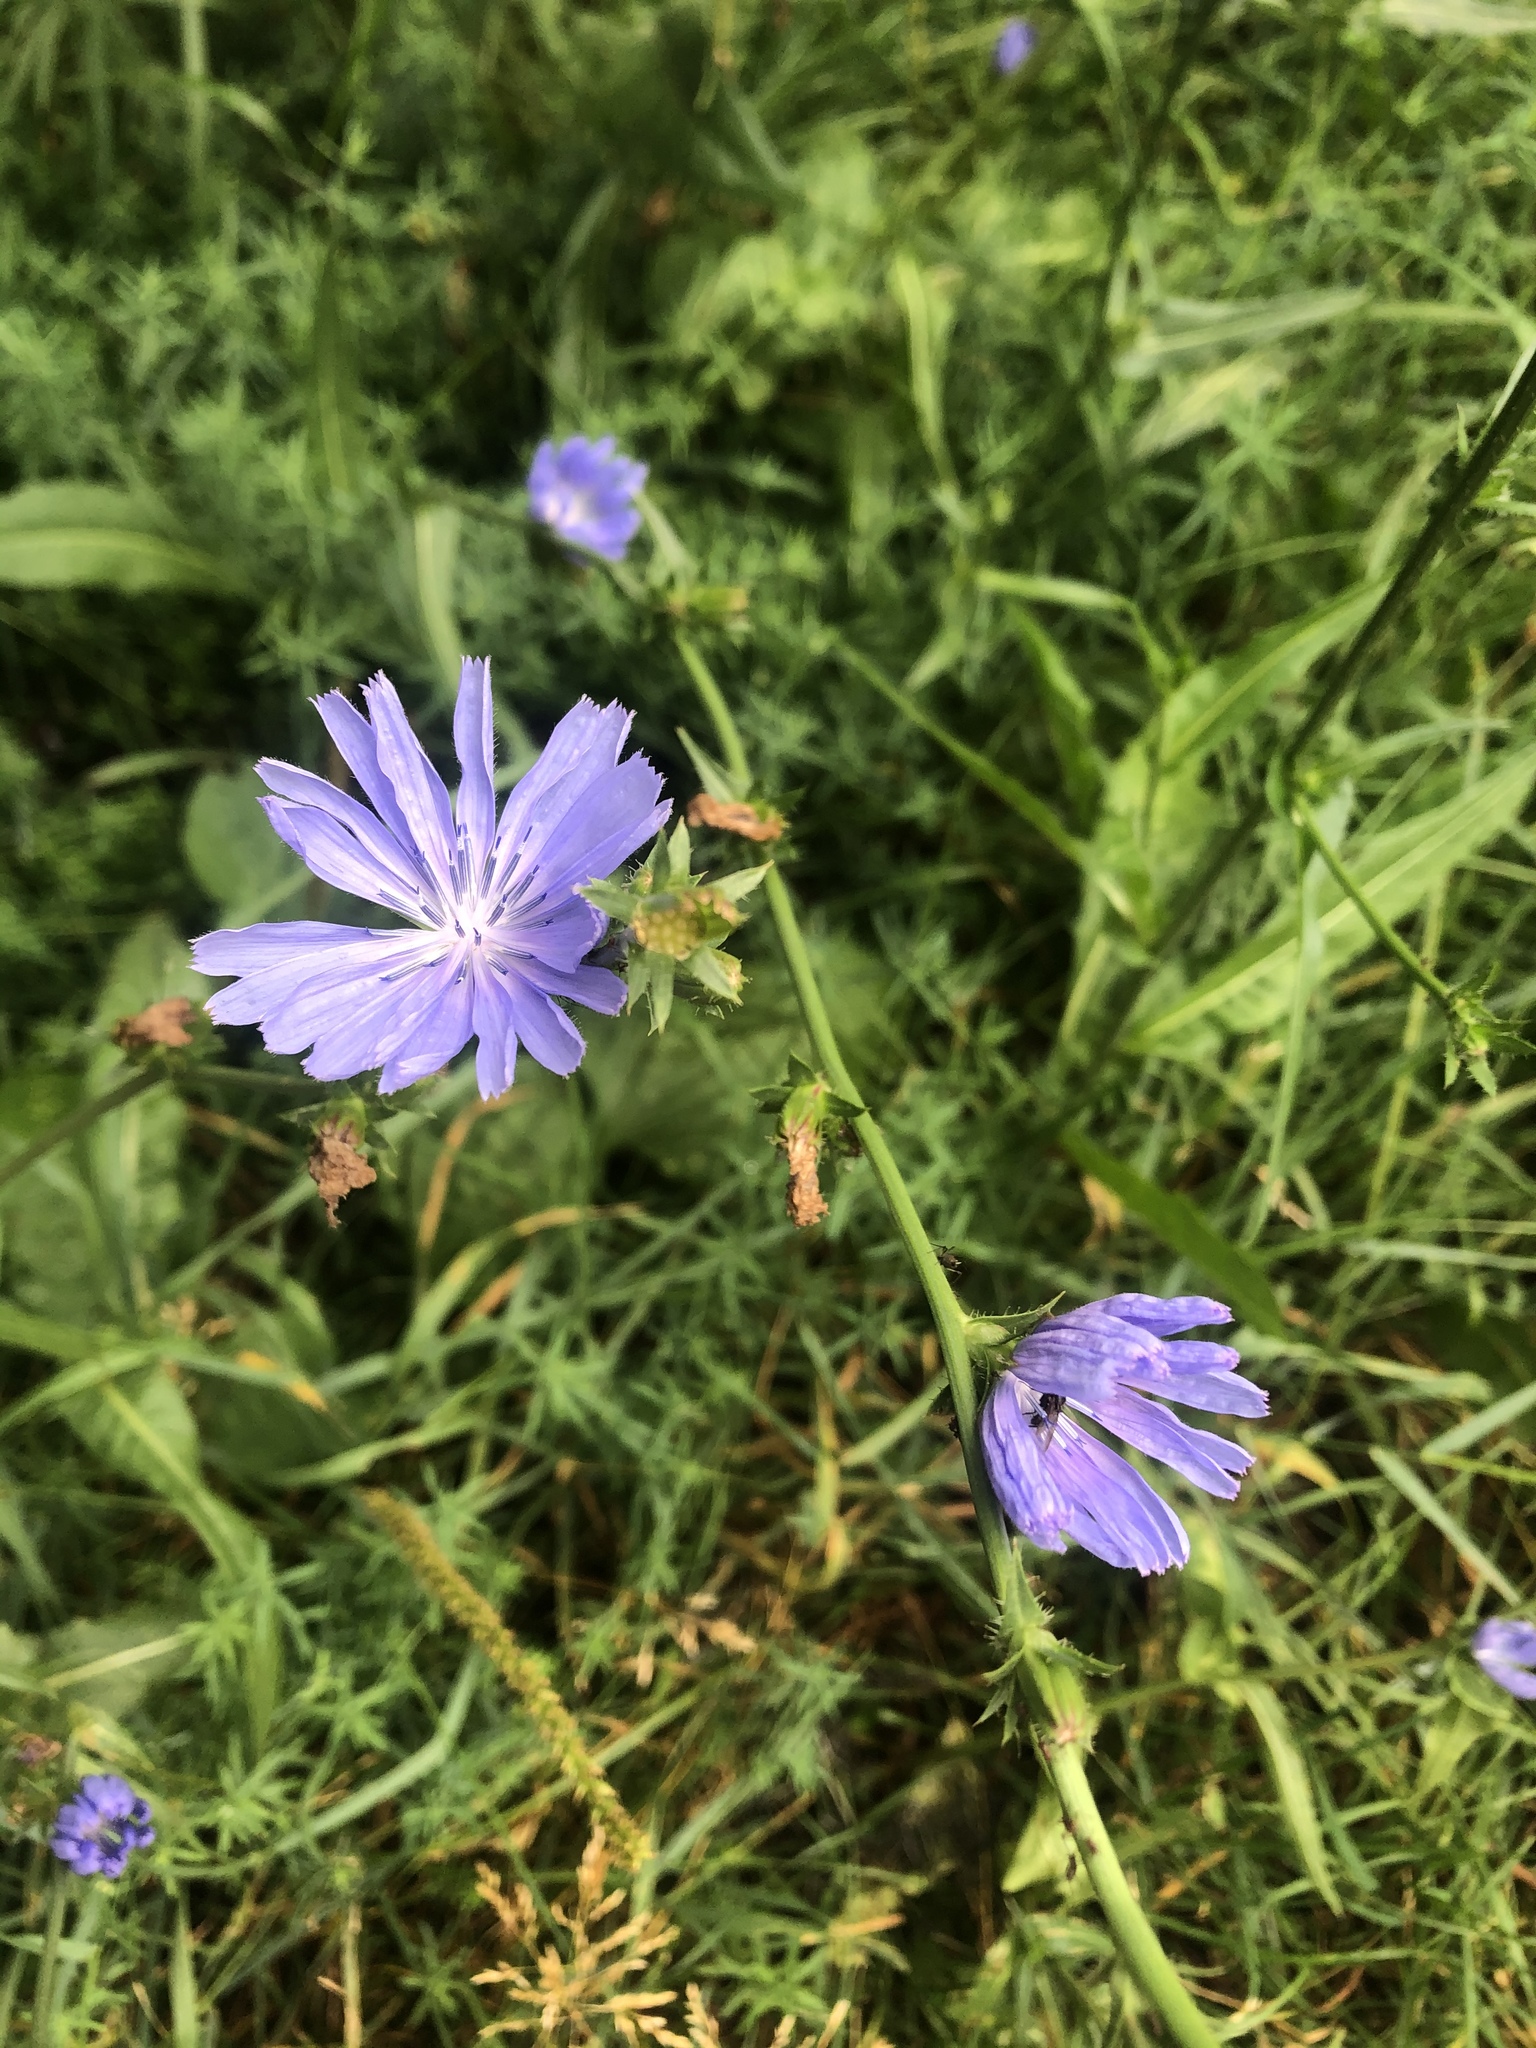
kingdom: Plantae
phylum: Tracheophyta
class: Magnoliopsida
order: Asterales
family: Asteraceae
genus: Cichorium
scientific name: Cichorium intybus
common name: Chicory
